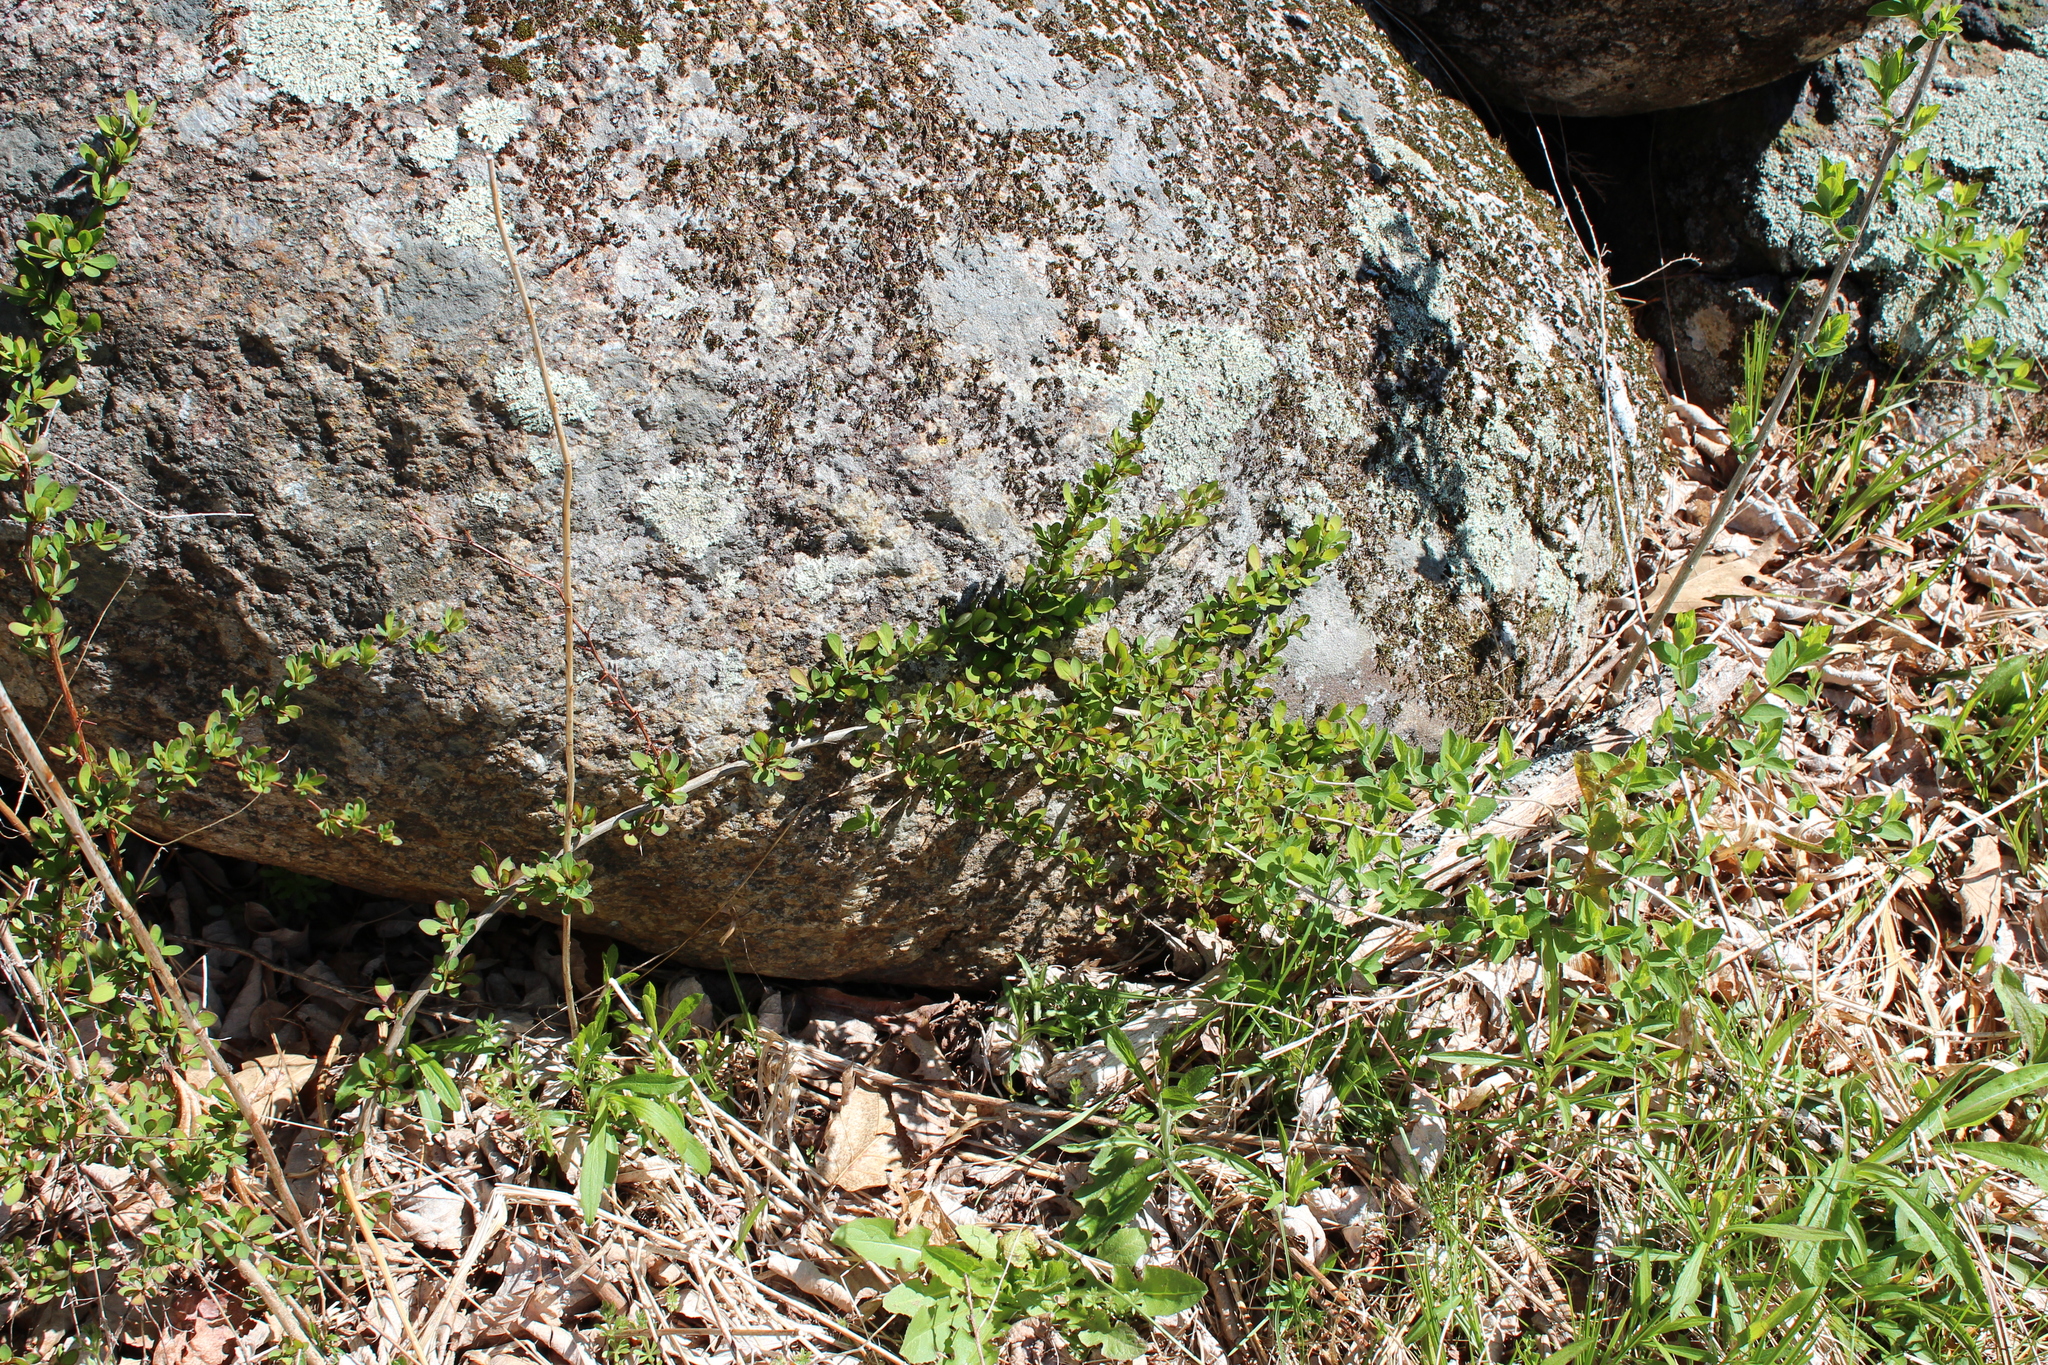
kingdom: Plantae
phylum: Tracheophyta
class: Magnoliopsida
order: Ranunculales
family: Berberidaceae
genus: Berberis
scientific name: Berberis thunbergii
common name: Japanese barberry
